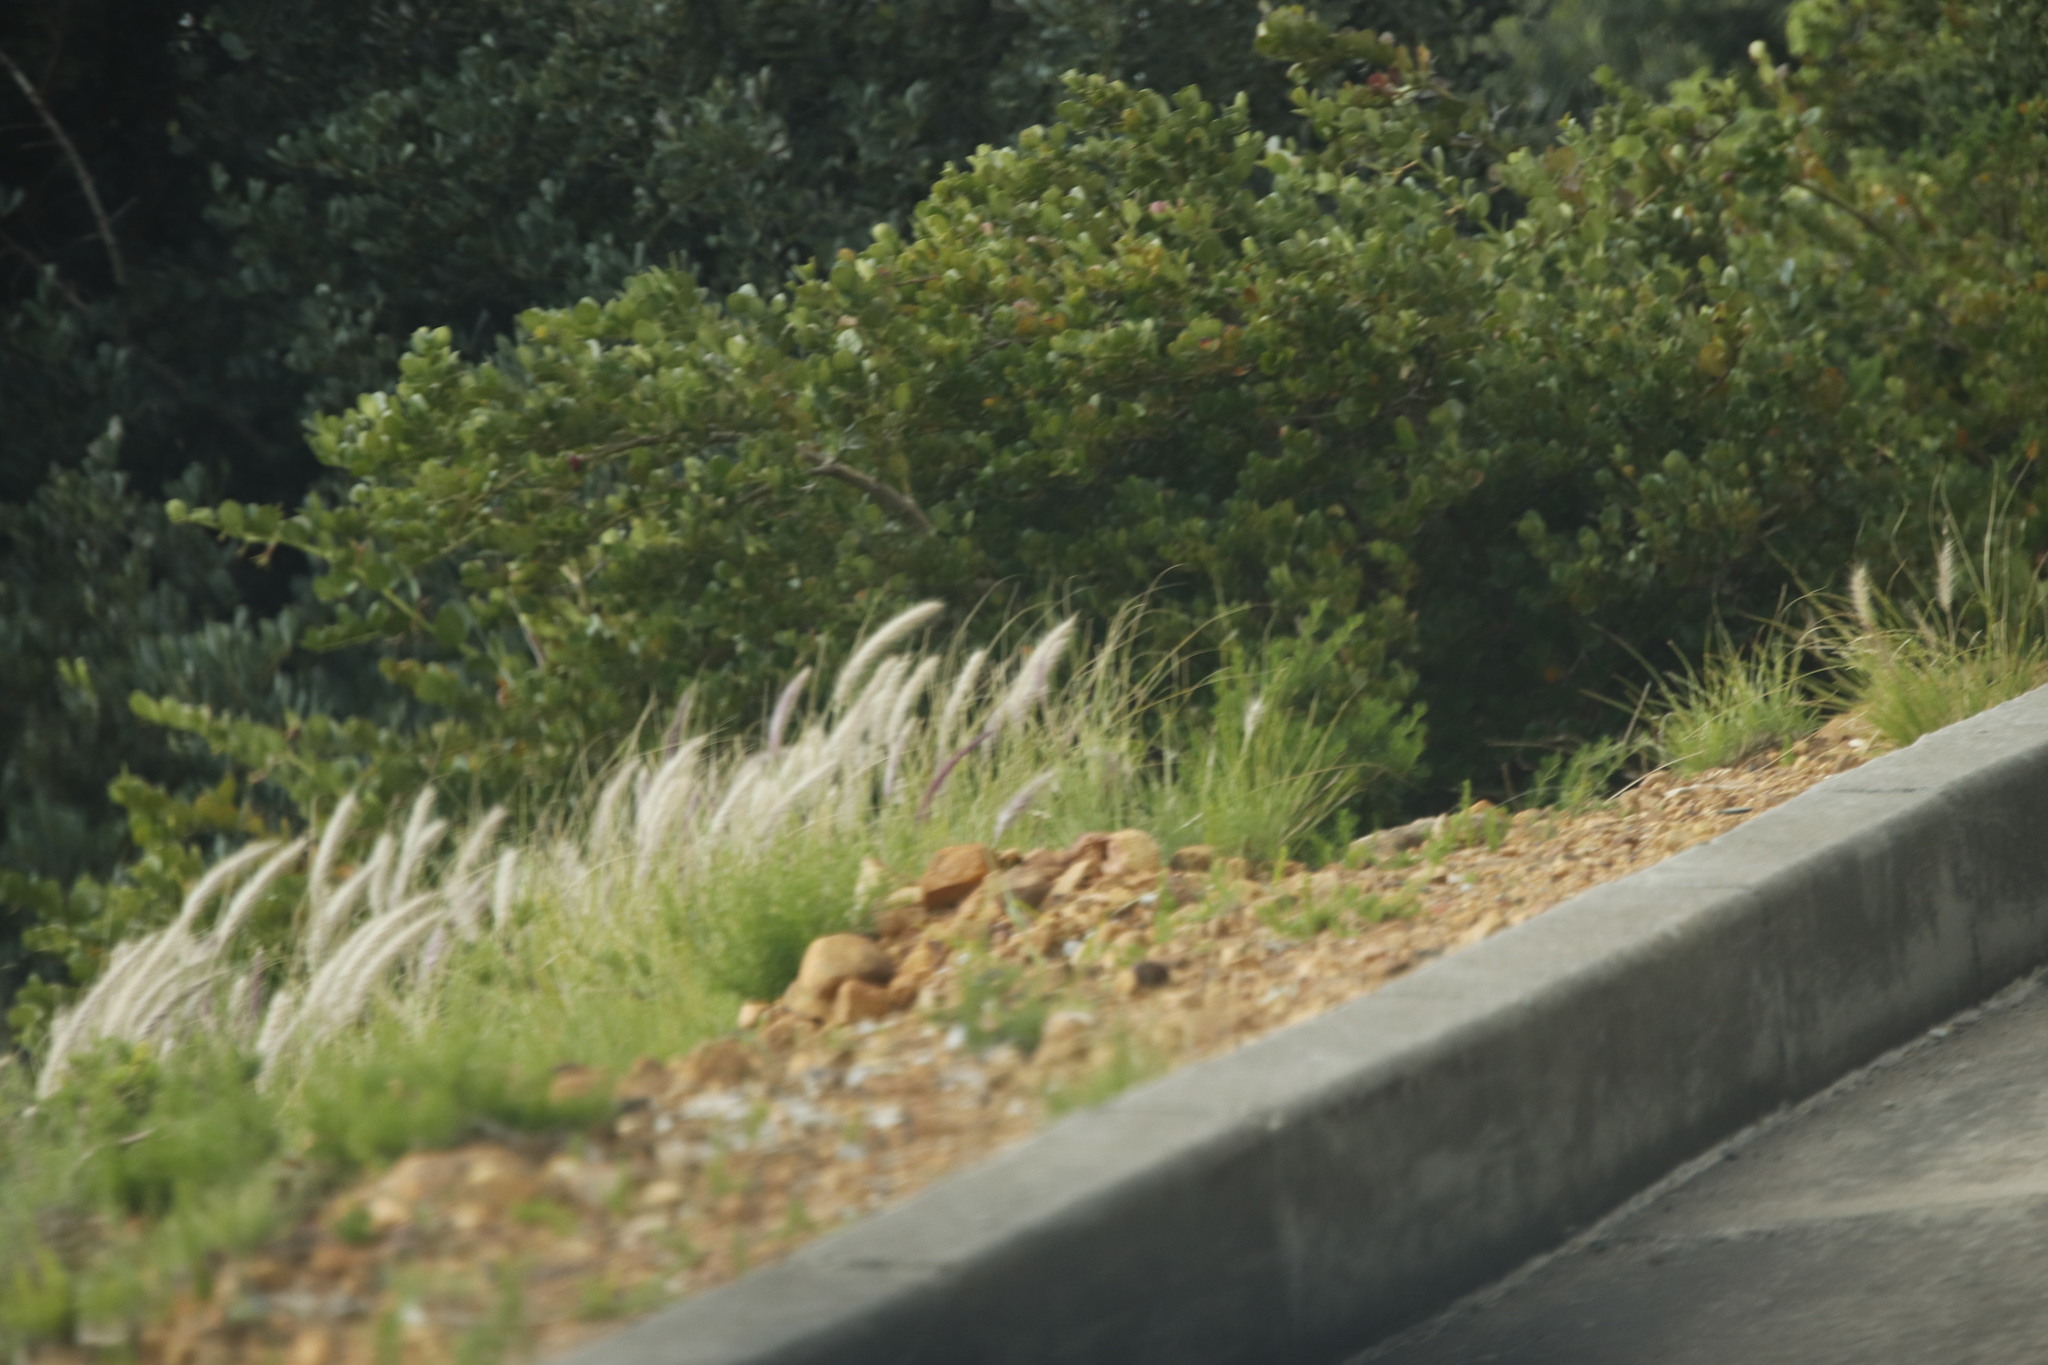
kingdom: Plantae
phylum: Tracheophyta
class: Liliopsida
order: Poales
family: Poaceae
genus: Cenchrus
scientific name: Cenchrus setaceus
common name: Crimson fountaingrass
